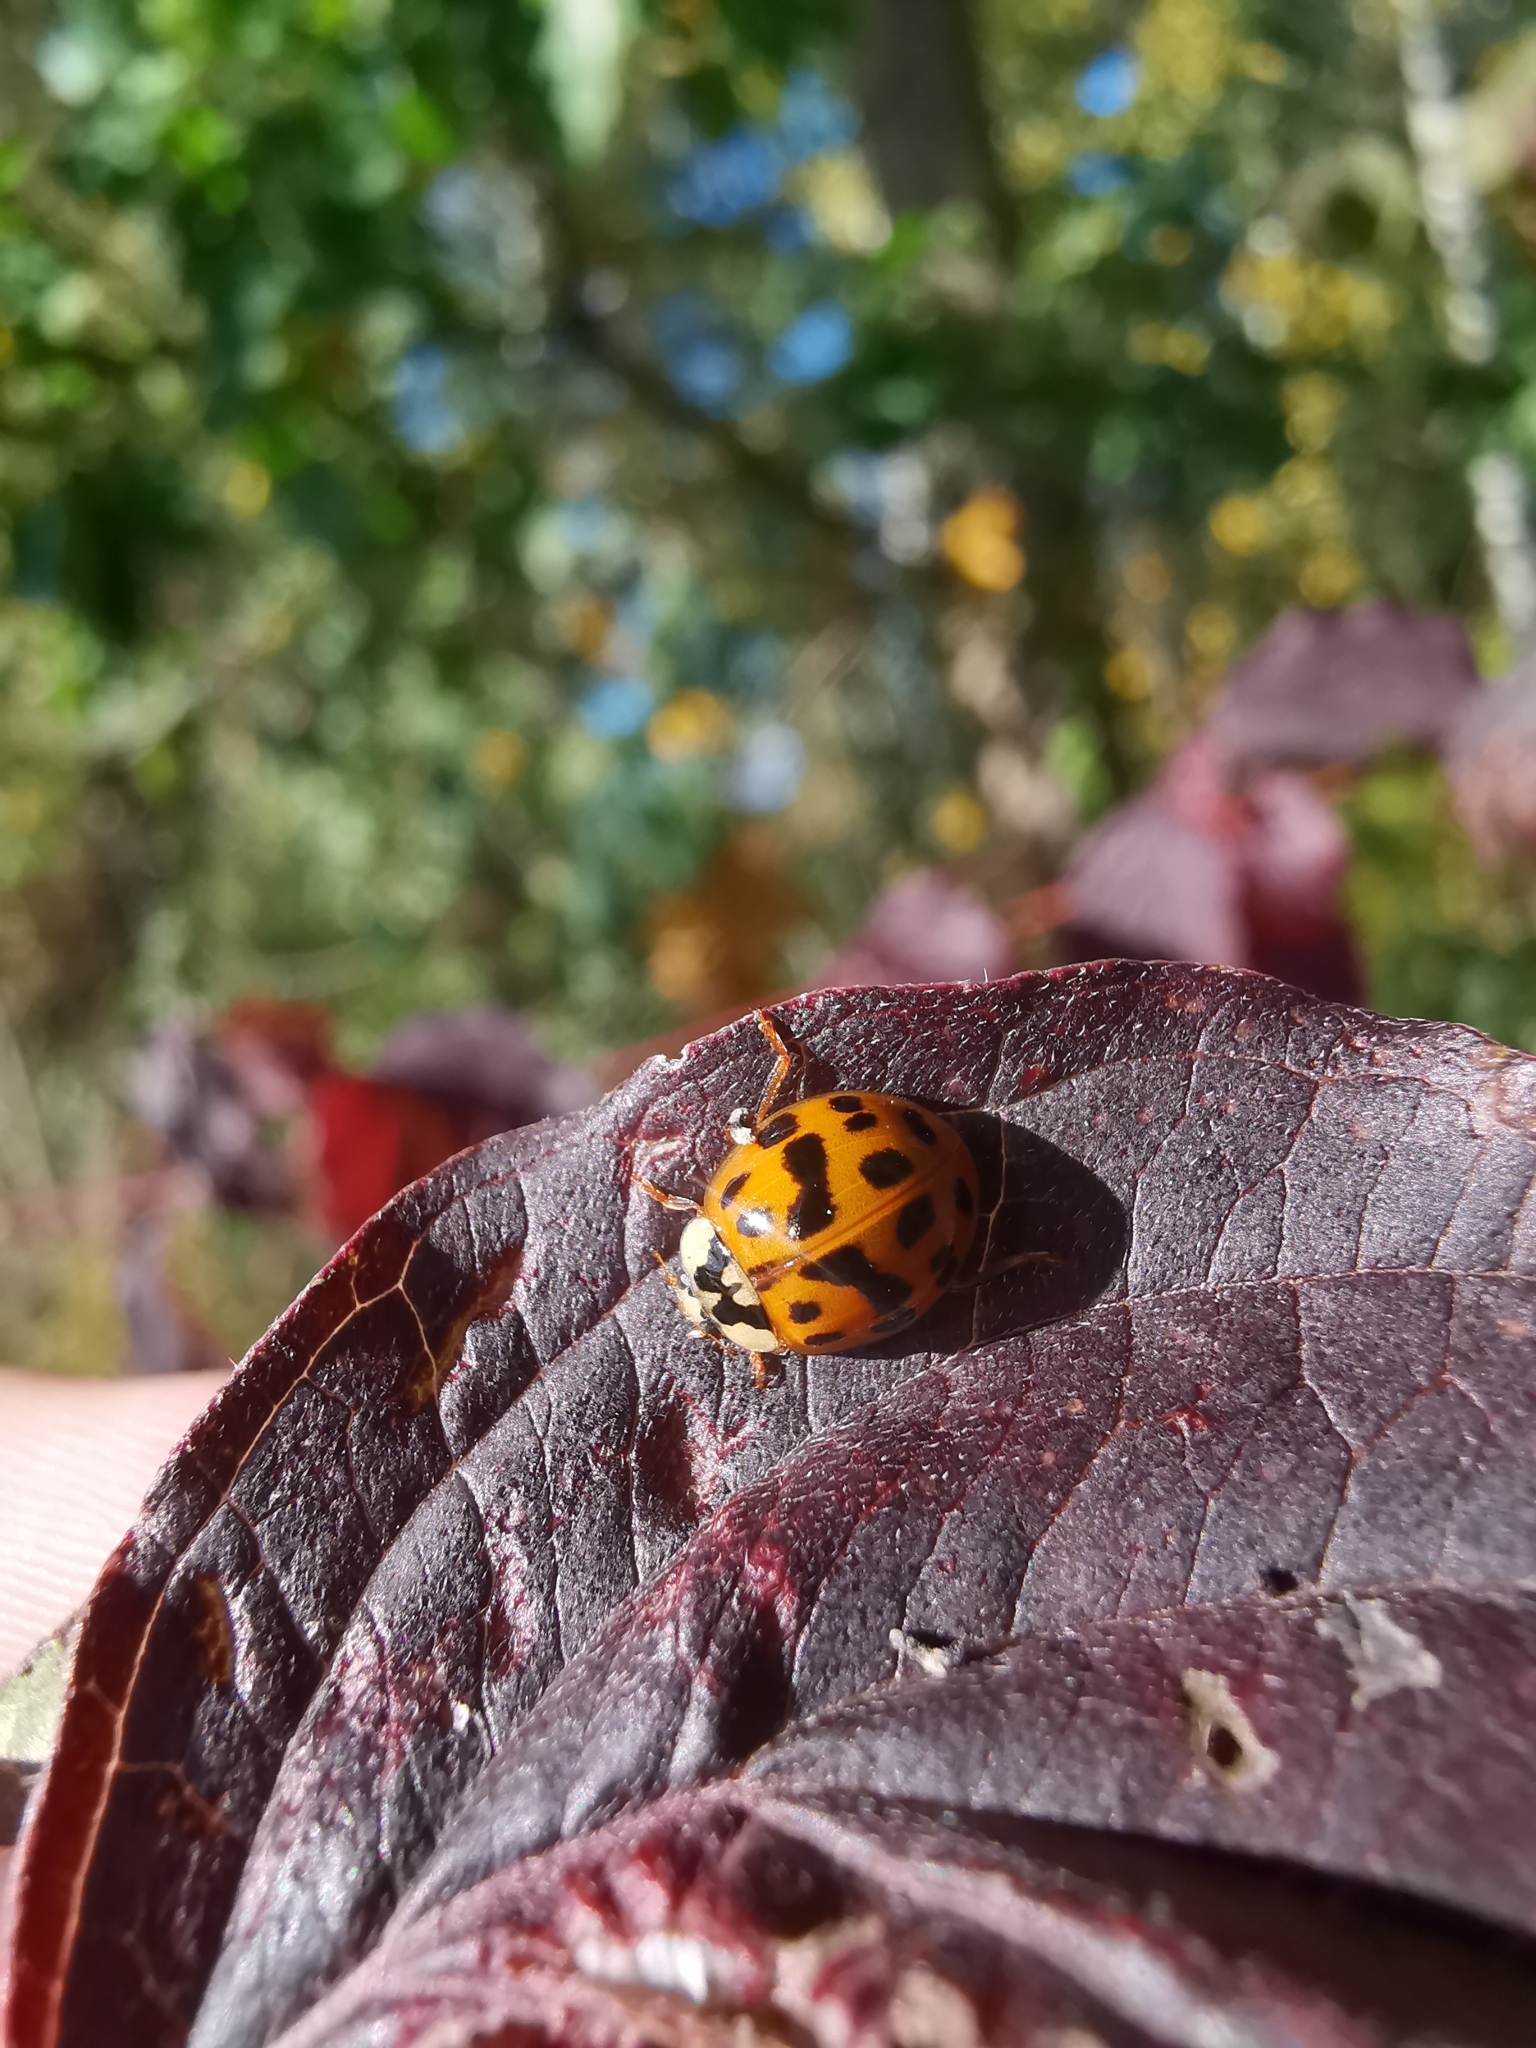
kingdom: Animalia
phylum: Arthropoda
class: Insecta
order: Coleoptera
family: Coccinellidae
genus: Harmonia
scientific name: Harmonia axyridis
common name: Harlequin ladybird
